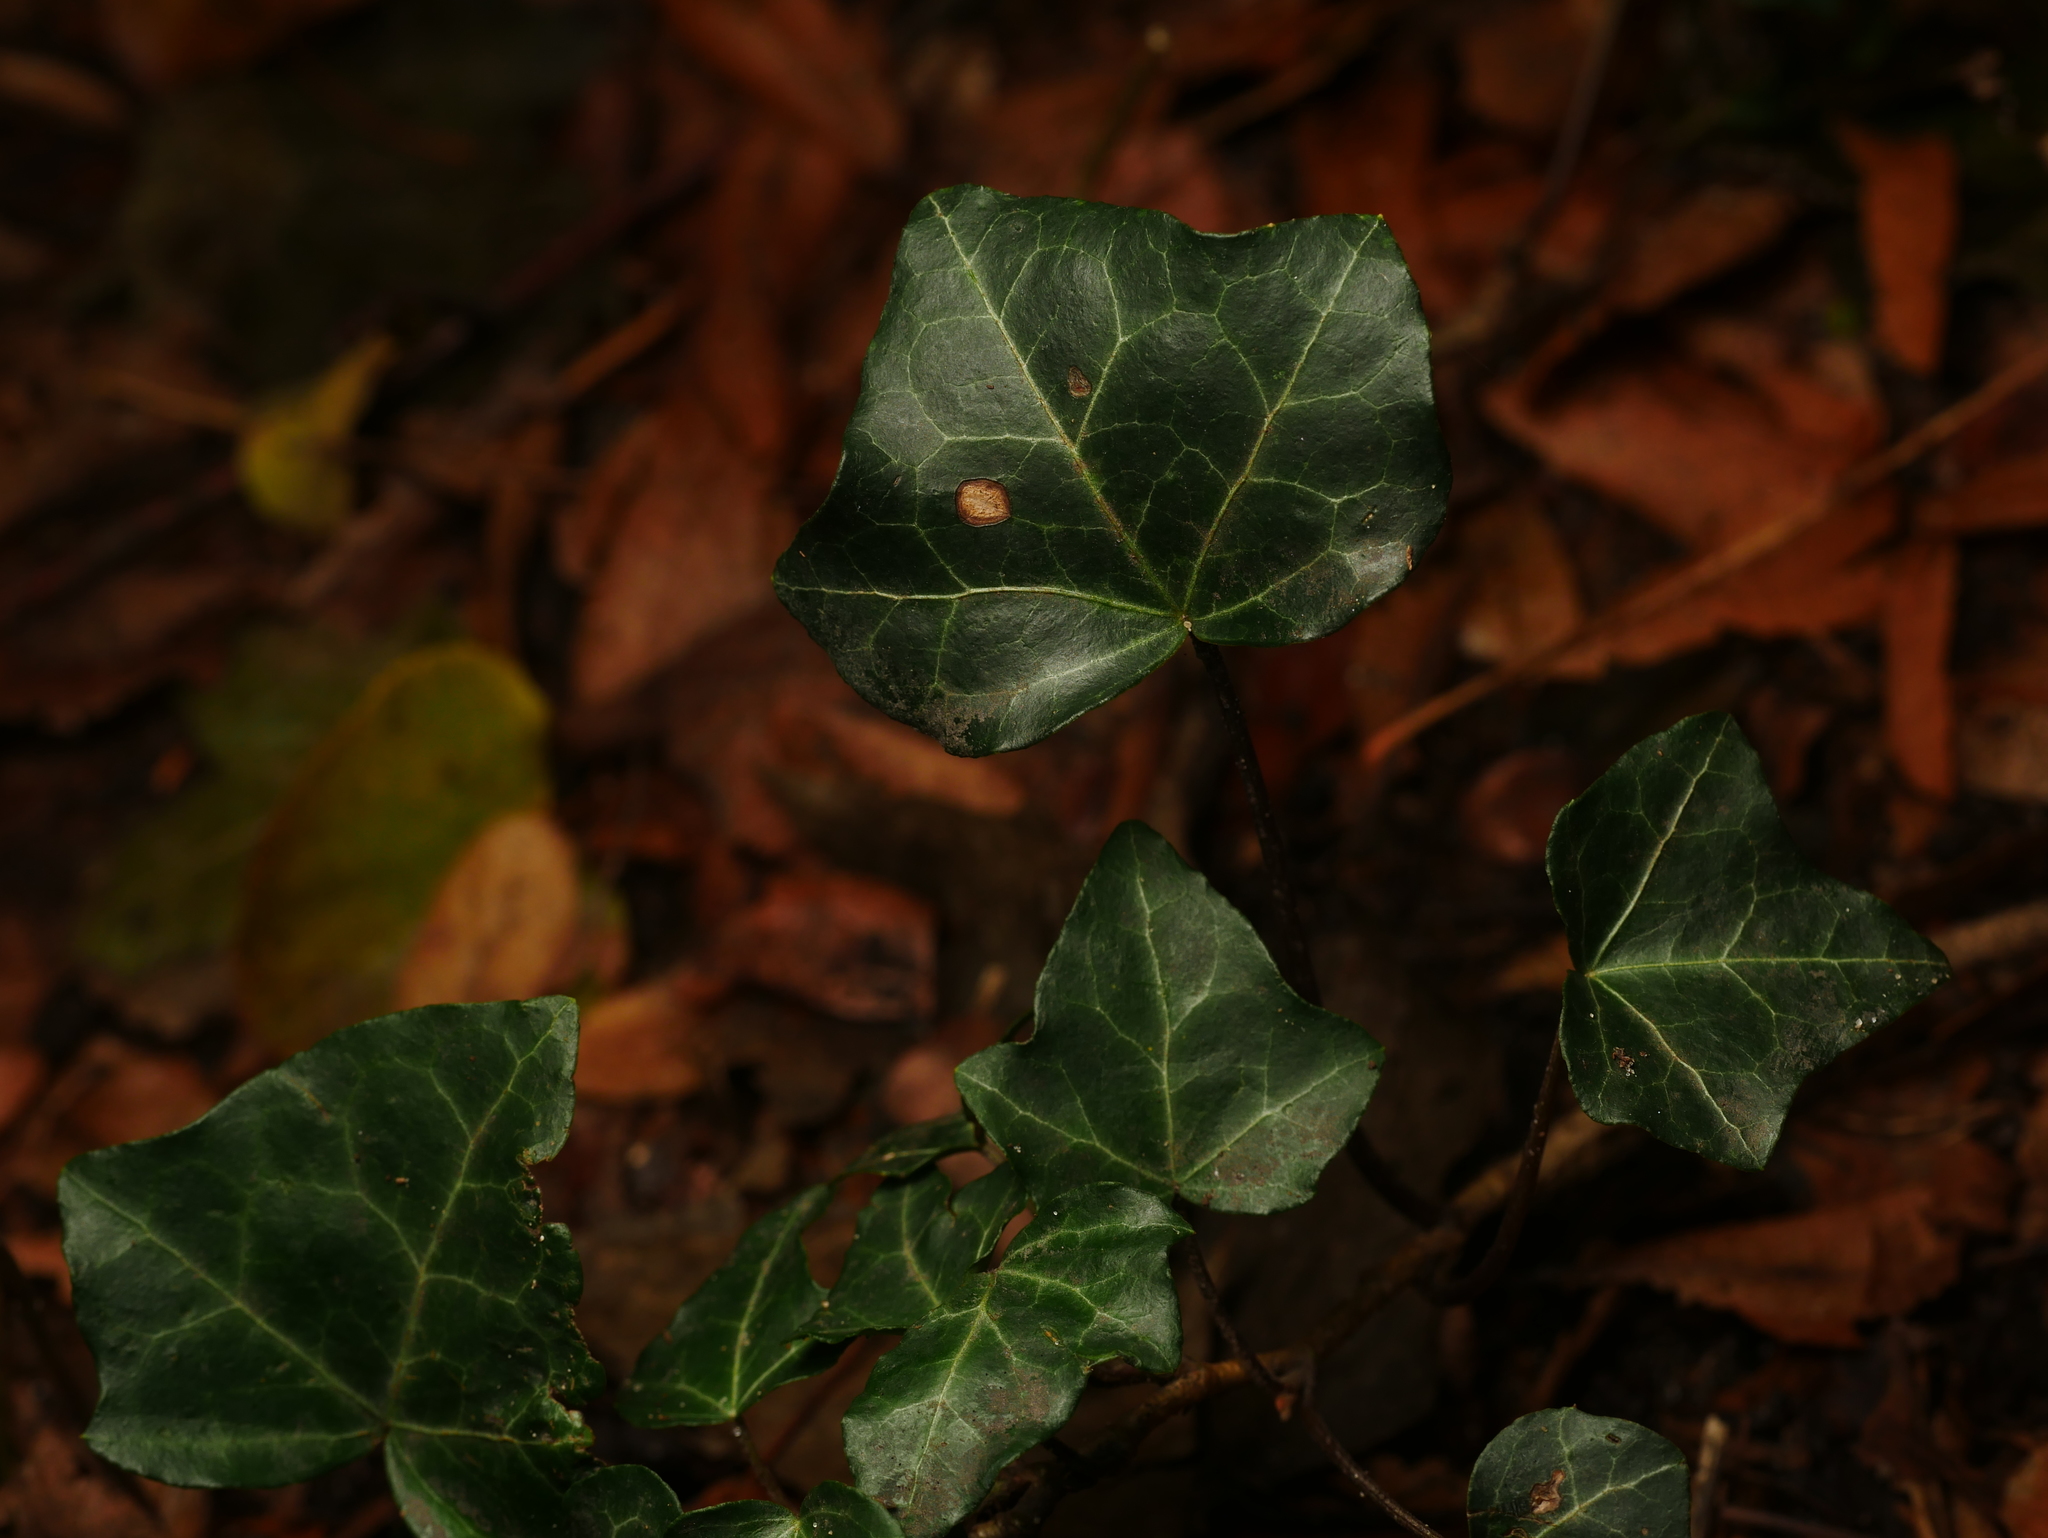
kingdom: Plantae
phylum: Tracheophyta
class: Magnoliopsida
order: Apiales
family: Araliaceae
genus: Hedera
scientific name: Hedera helix
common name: Ivy
